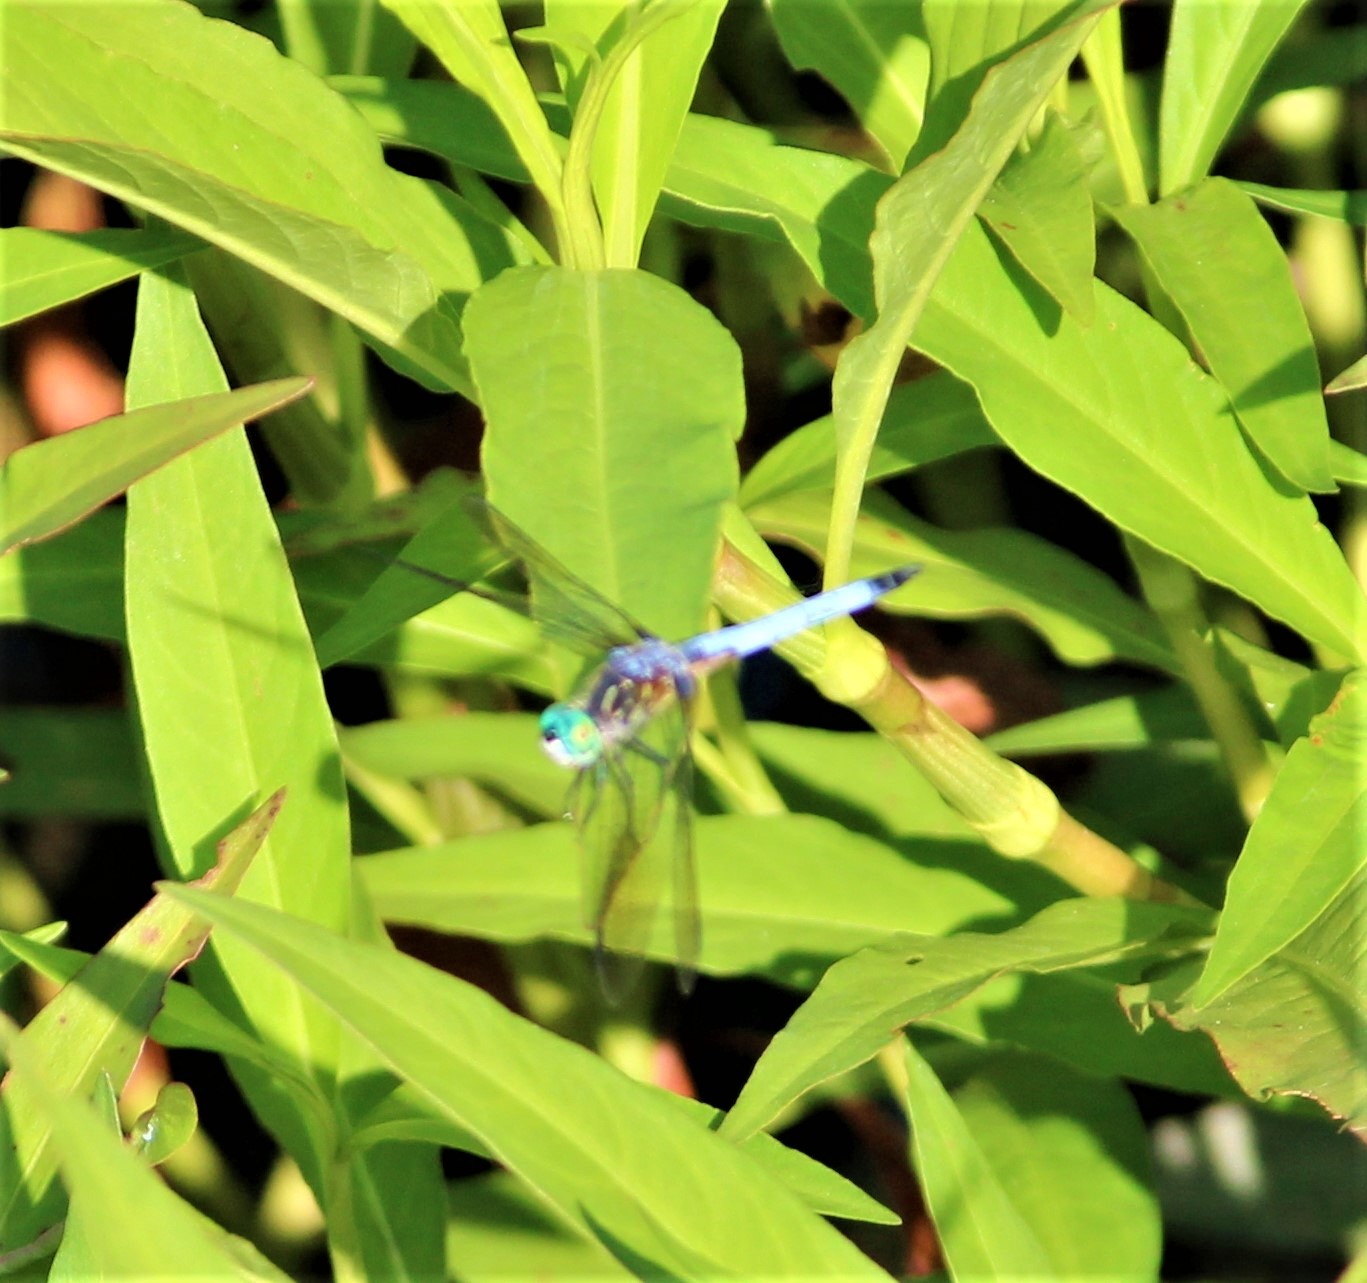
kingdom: Animalia
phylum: Arthropoda
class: Insecta
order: Odonata
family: Libellulidae
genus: Pachydiplax
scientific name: Pachydiplax longipennis
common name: Blue dasher
